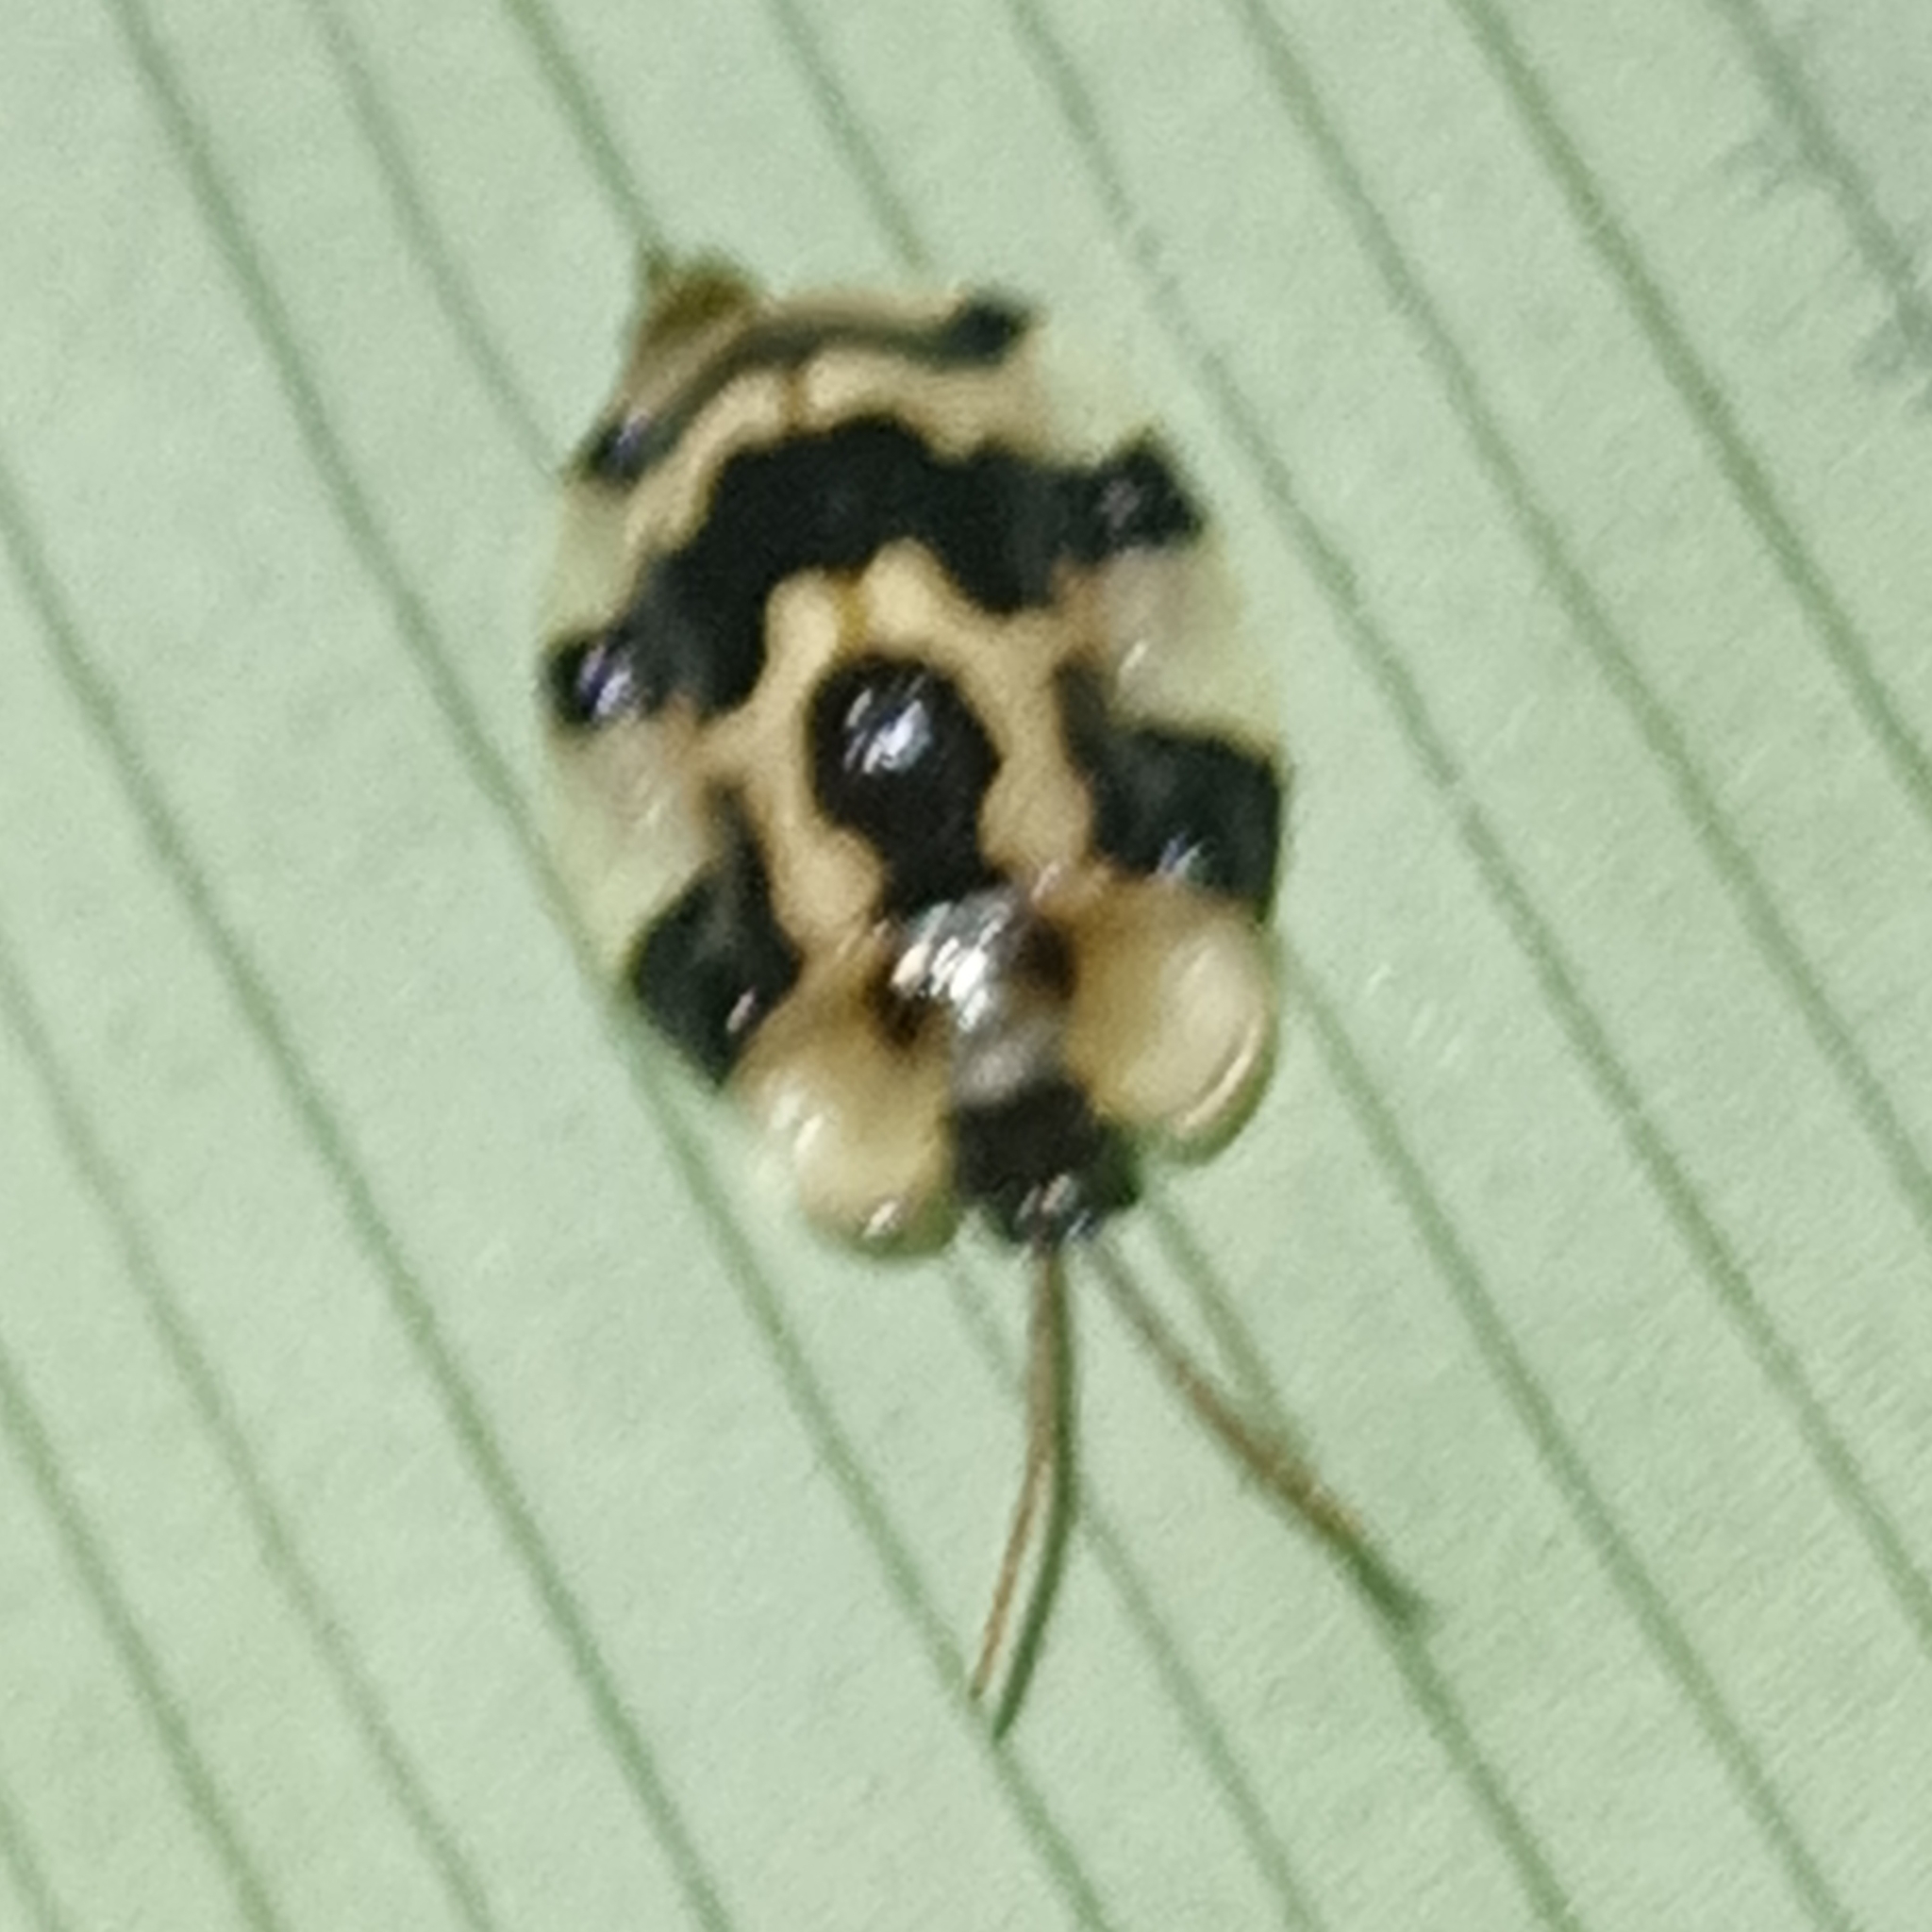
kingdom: Animalia
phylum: Arthropoda
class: Insecta
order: Coleoptera
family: Chrysomelidae
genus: Aslamidium
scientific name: Aslamidium capense
